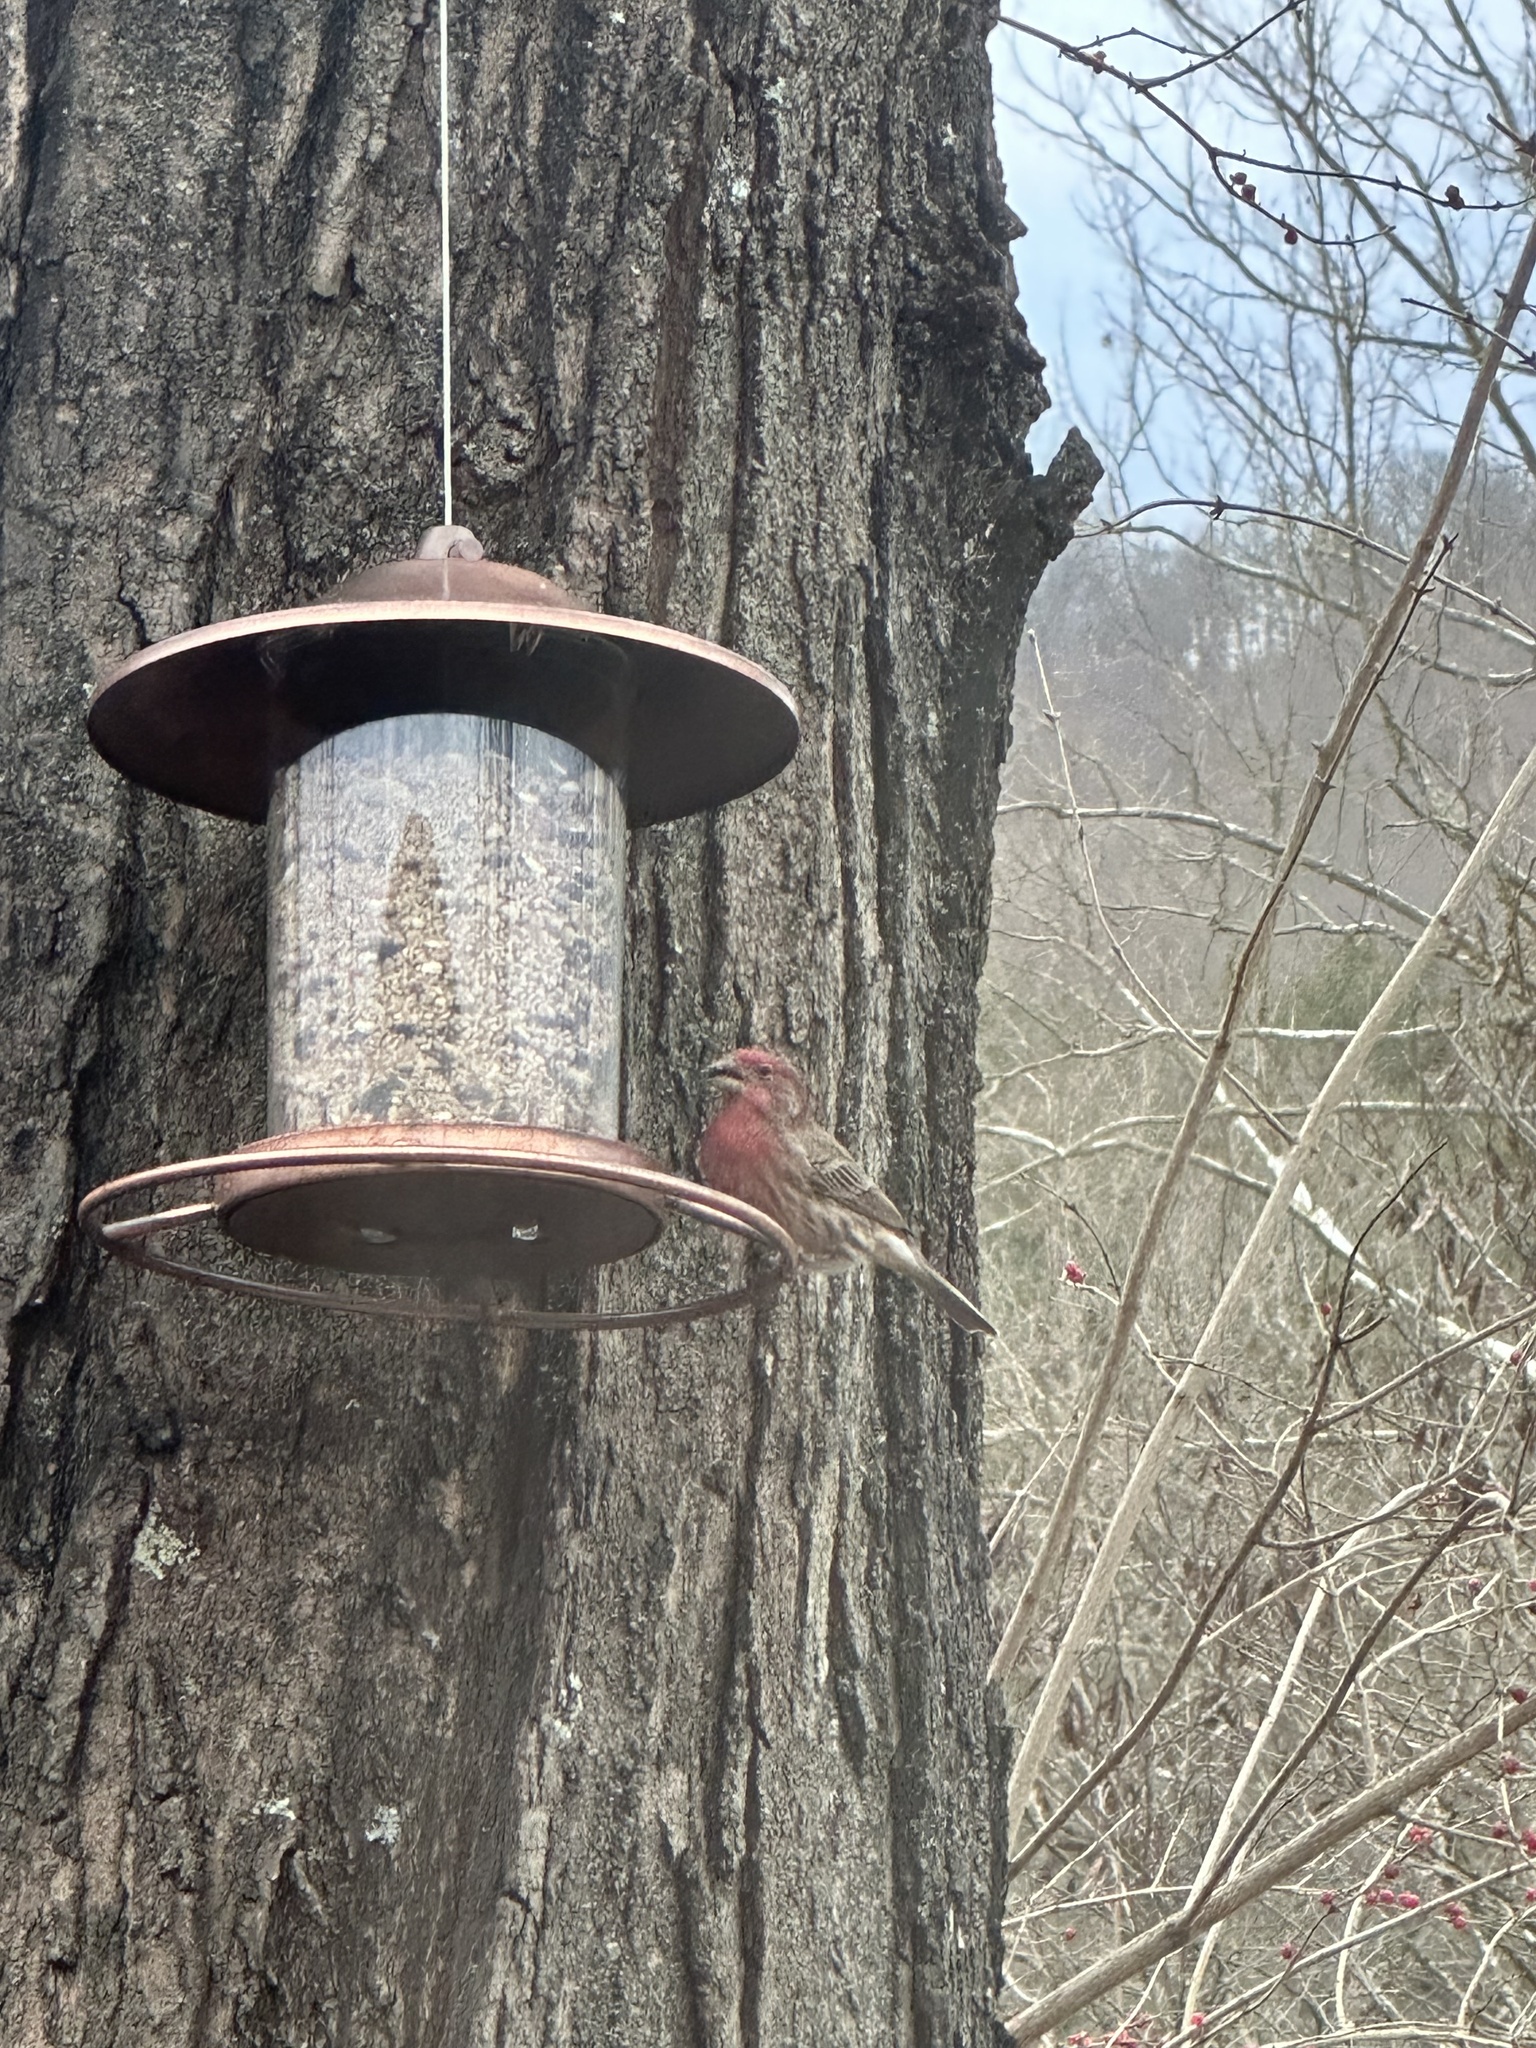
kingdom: Animalia
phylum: Chordata
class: Aves
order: Passeriformes
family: Fringillidae
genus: Haemorhous
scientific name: Haemorhous mexicanus
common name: House finch
